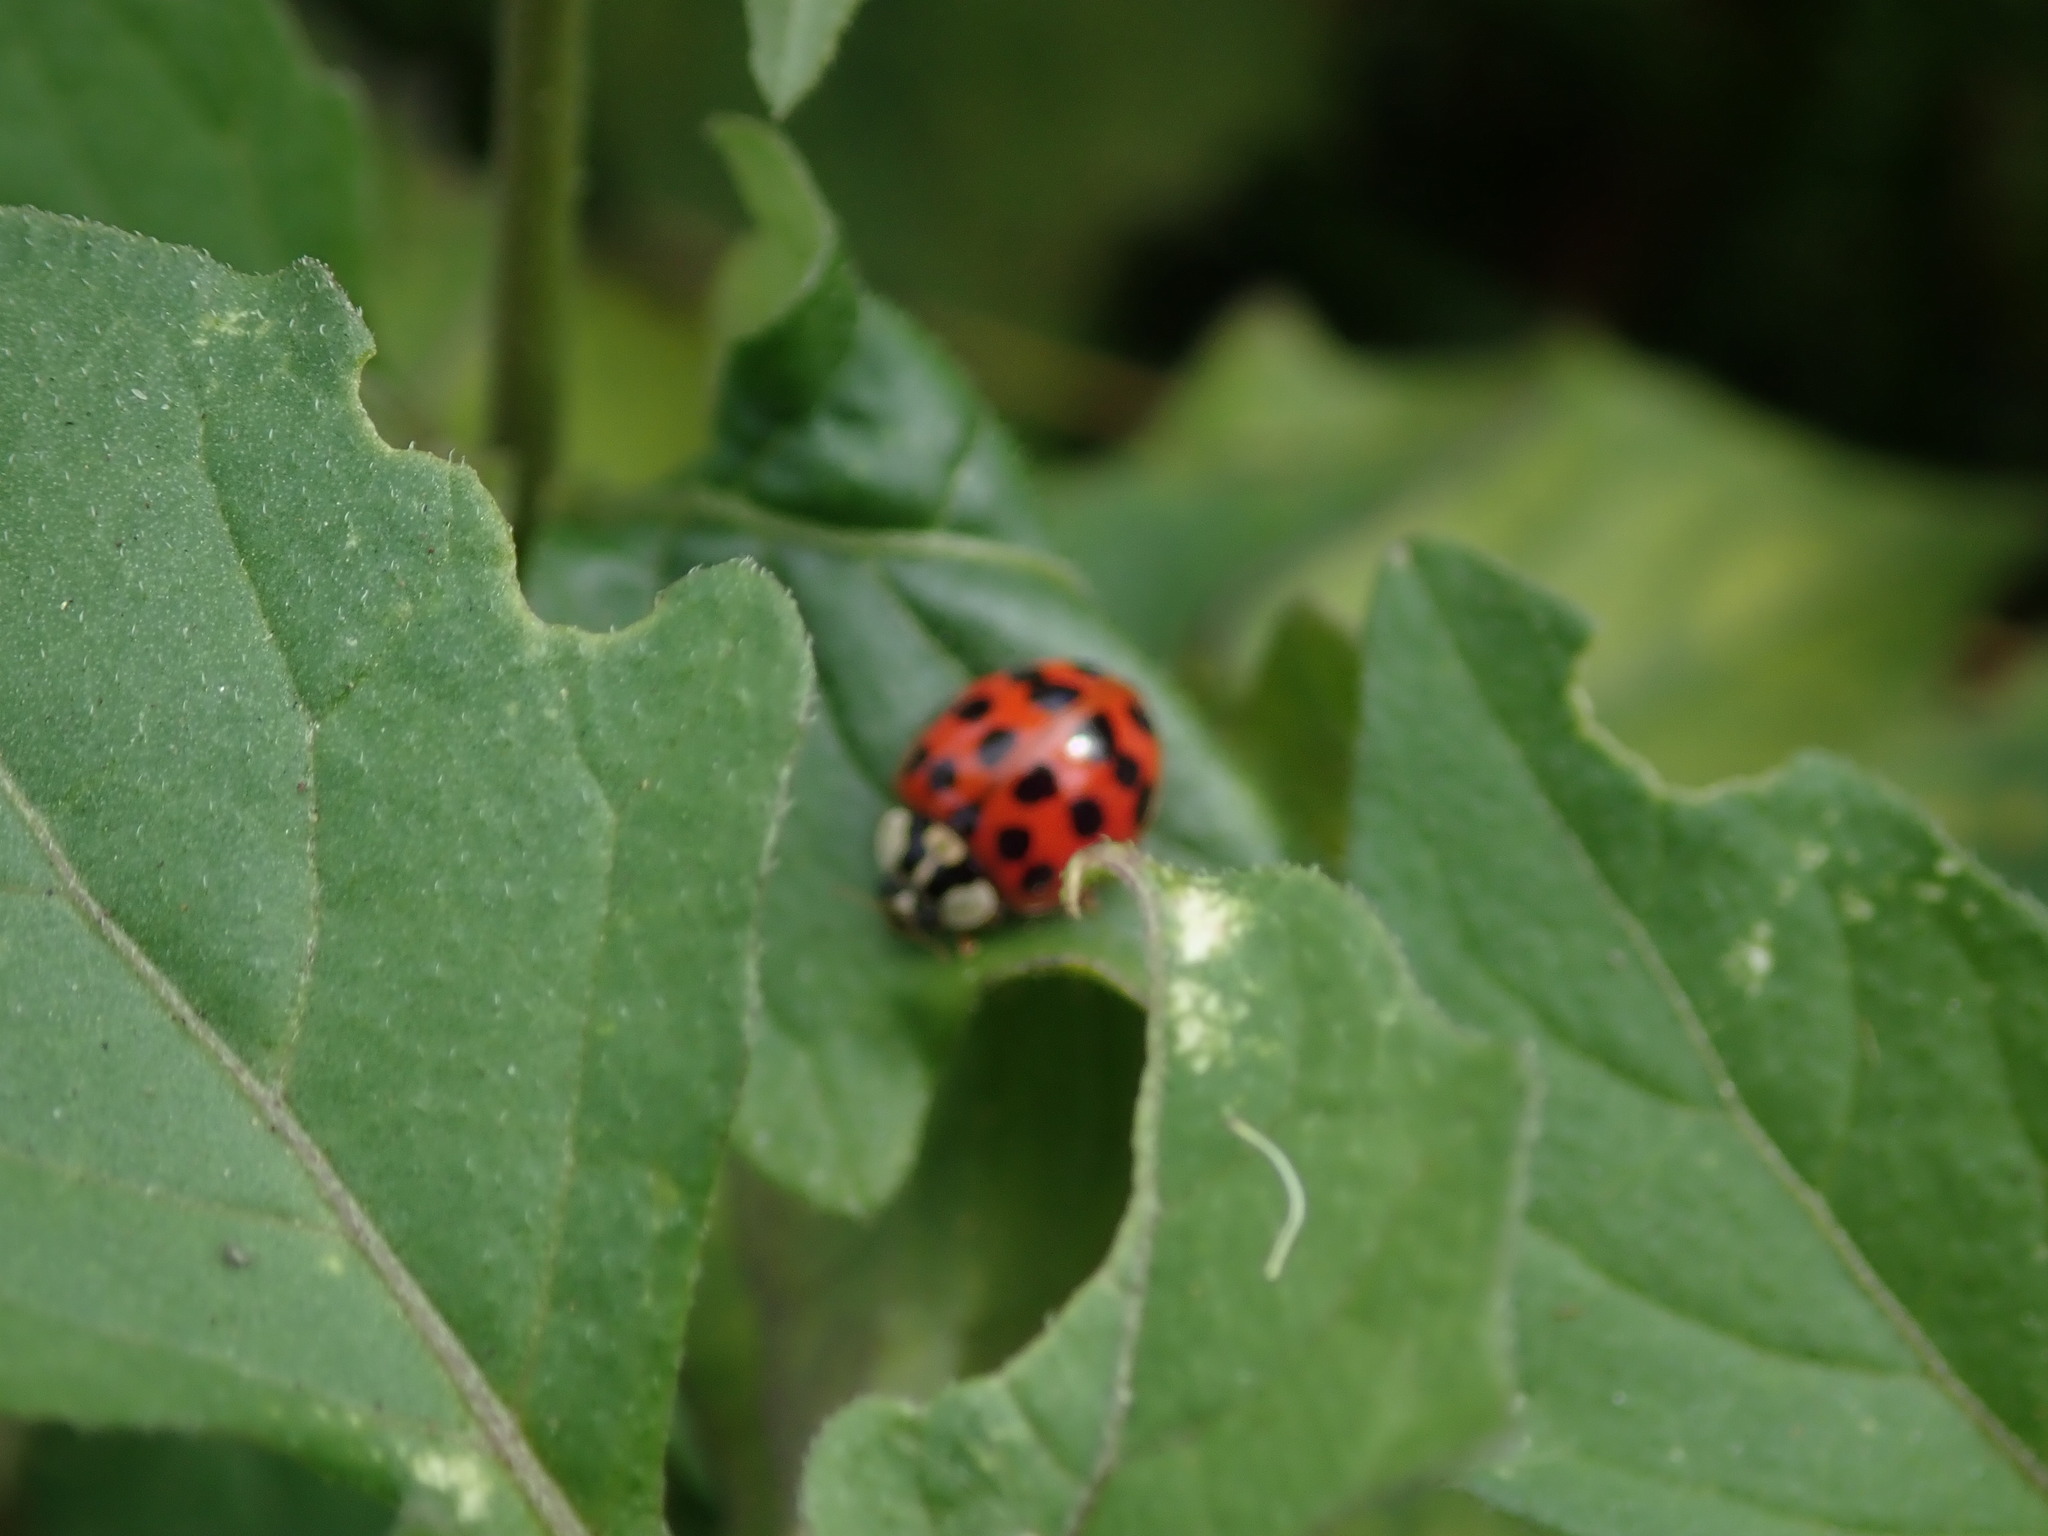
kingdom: Animalia
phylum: Arthropoda
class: Insecta
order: Coleoptera
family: Coccinellidae
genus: Harmonia
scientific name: Harmonia axyridis
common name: Harlequin ladybird
